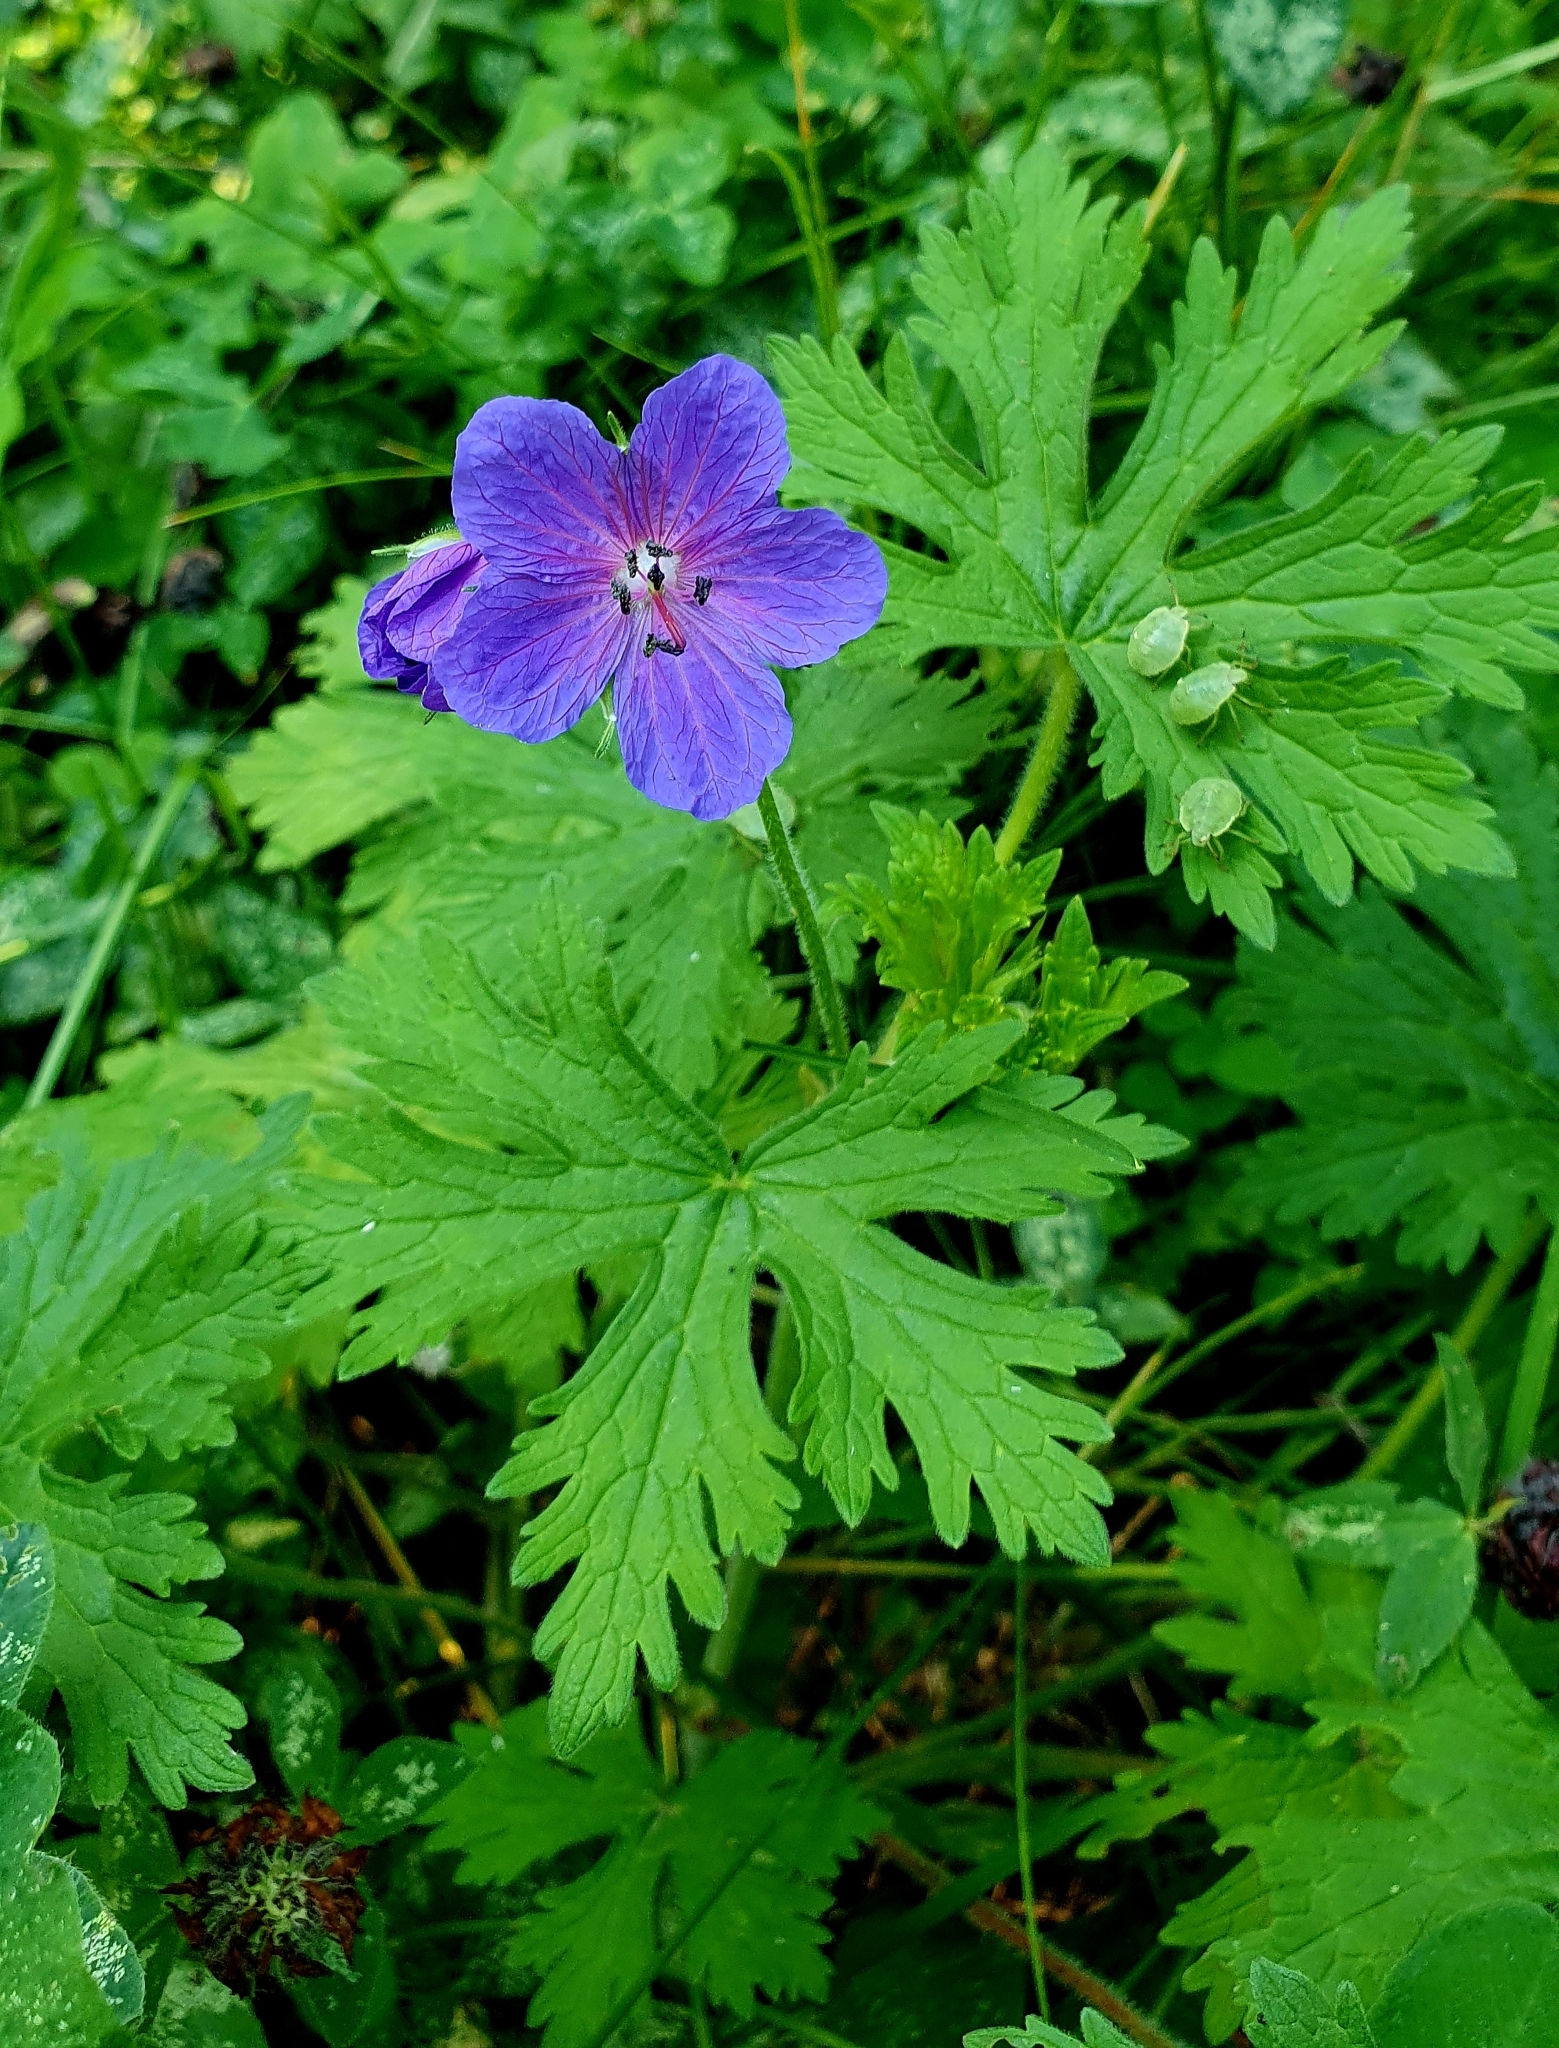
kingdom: Plantae
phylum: Tracheophyta
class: Magnoliopsida
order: Geraniales
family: Geraniaceae
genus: Geranium
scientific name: Geranium pratense
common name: Meadow crane's-bill
